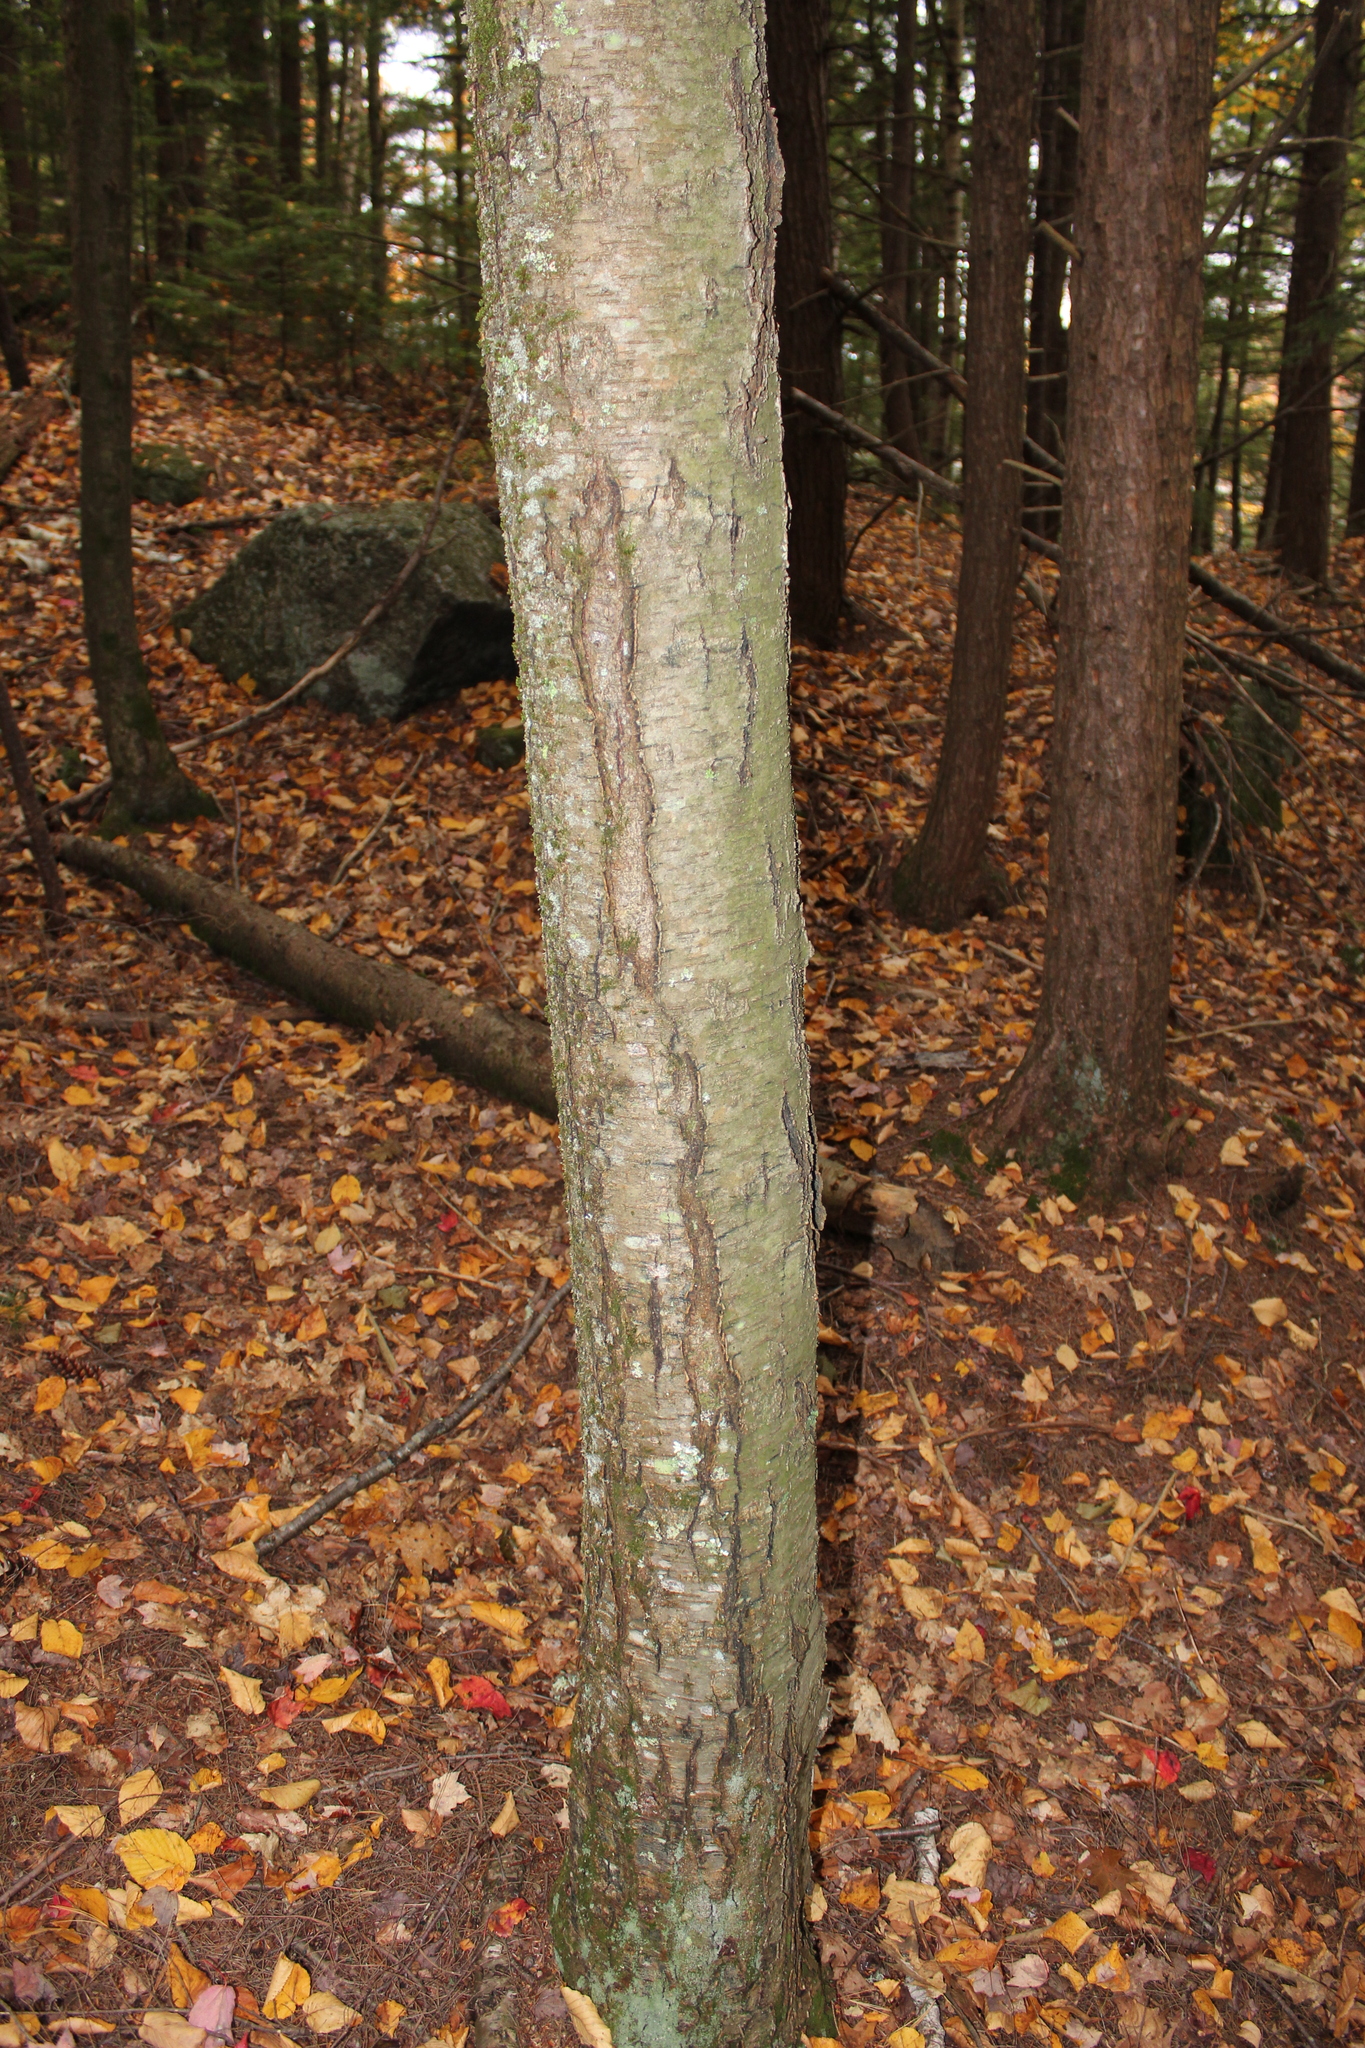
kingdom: Plantae
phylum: Tracheophyta
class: Magnoliopsida
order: Fagales
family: Betulaceae
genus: Betula
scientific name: Betula lenta
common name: Black birch
